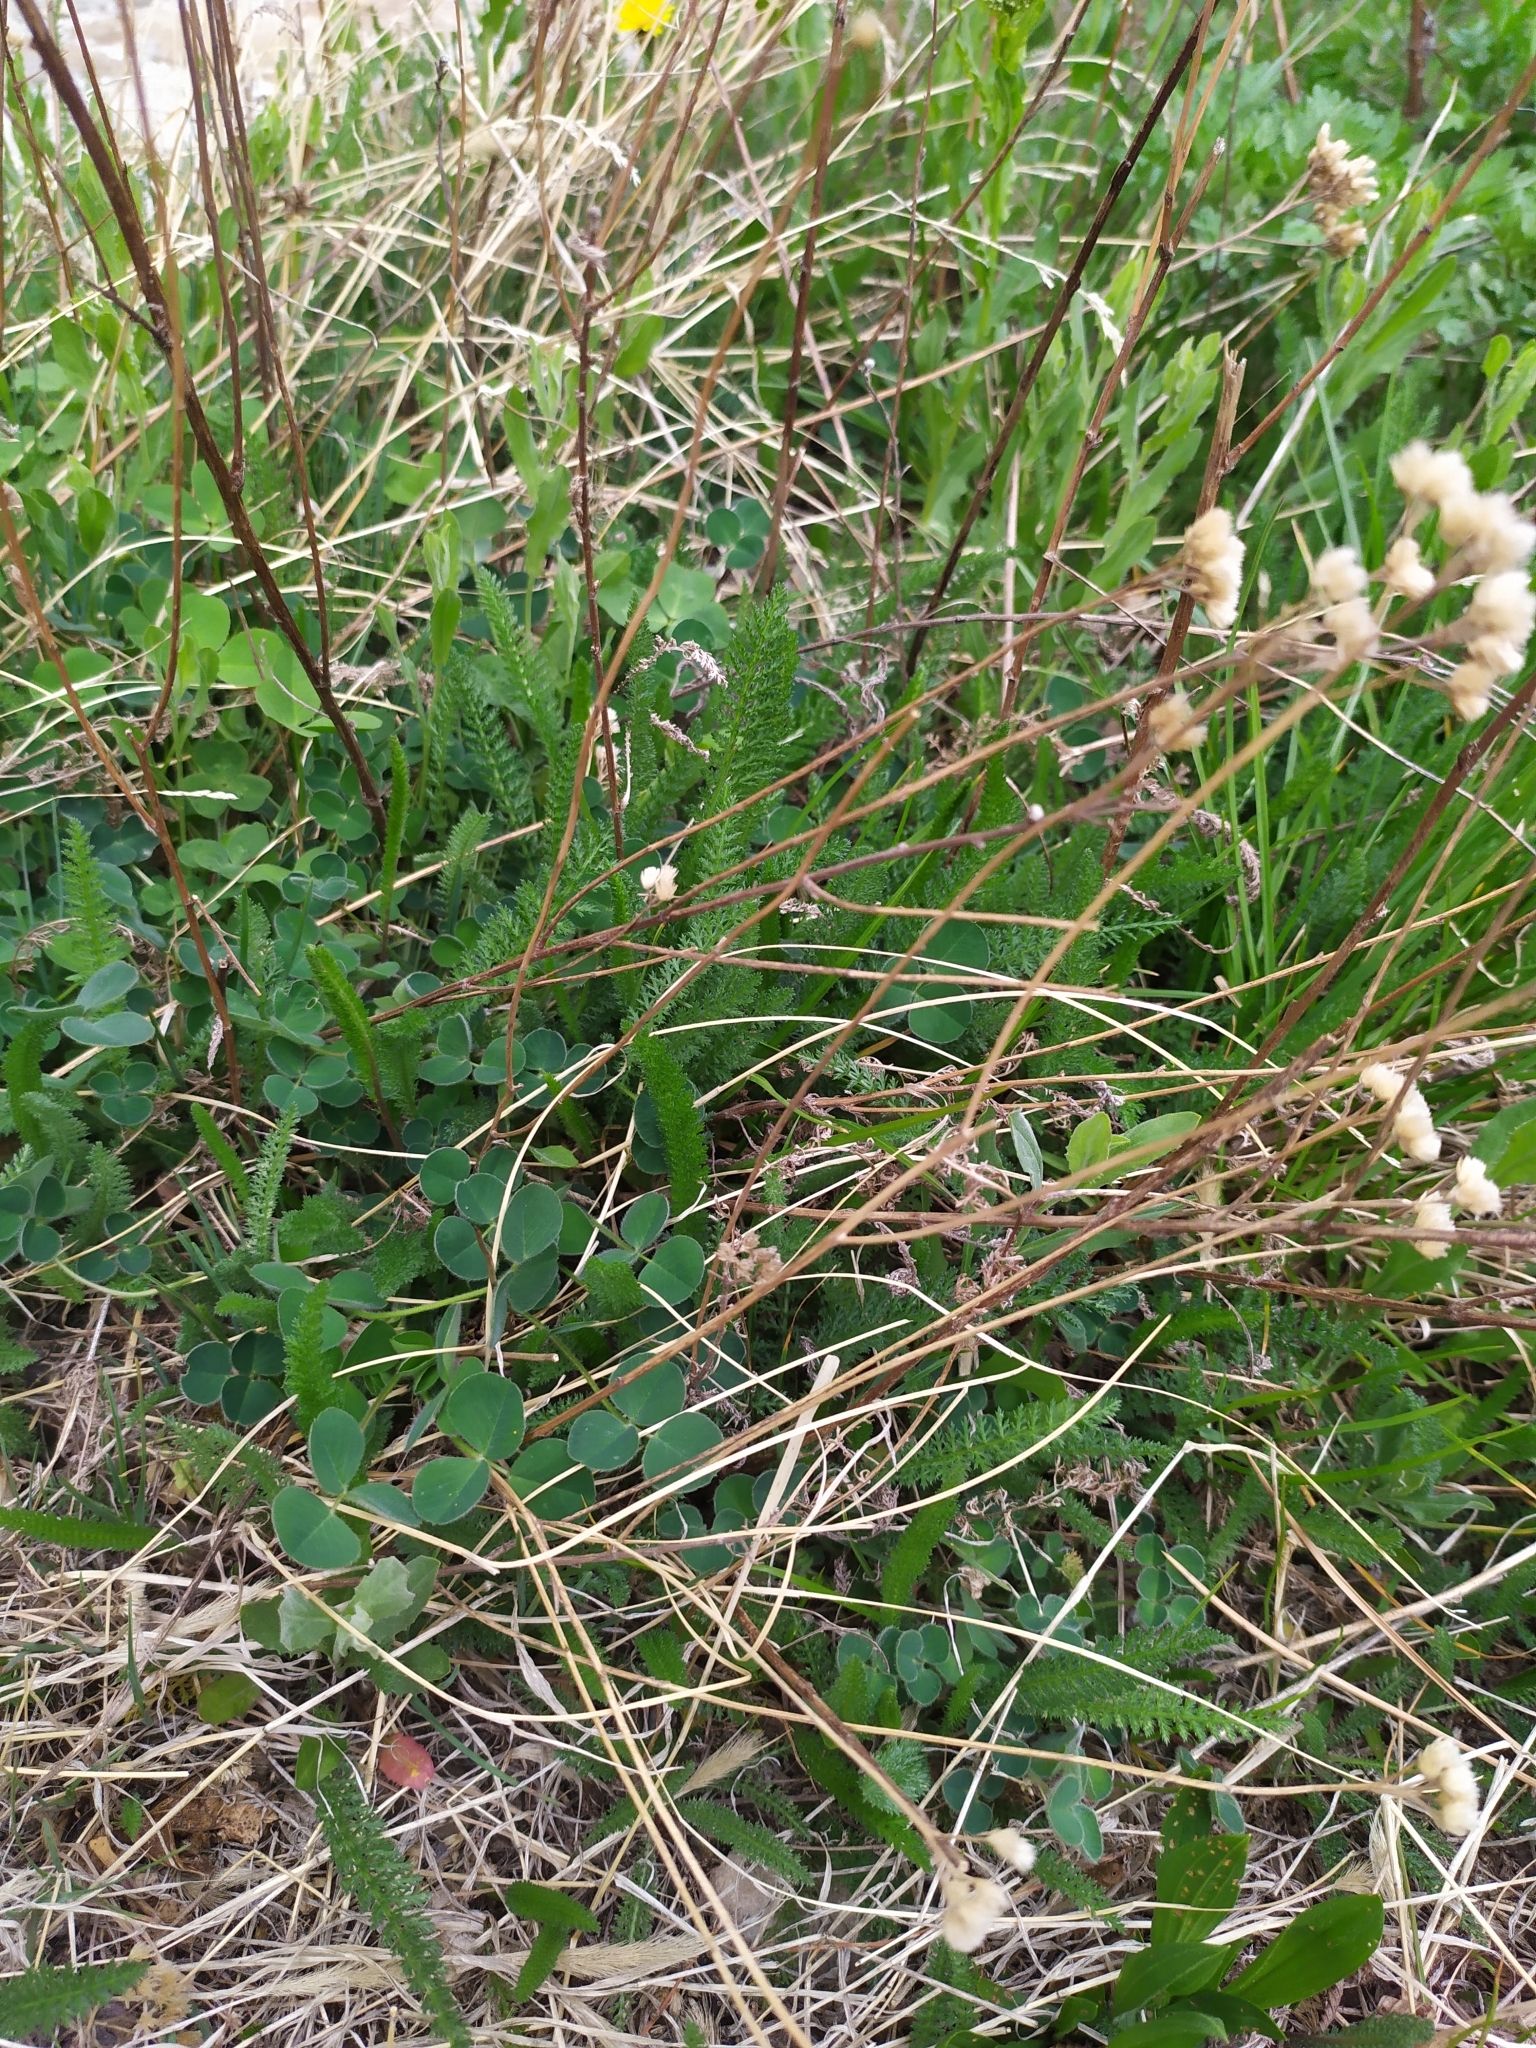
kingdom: Plantae
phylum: Tracheophyta
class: Magnoliopsida
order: Asterales
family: Asteraceae
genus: Achillea
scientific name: Achillea millefolium
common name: Yarrow
